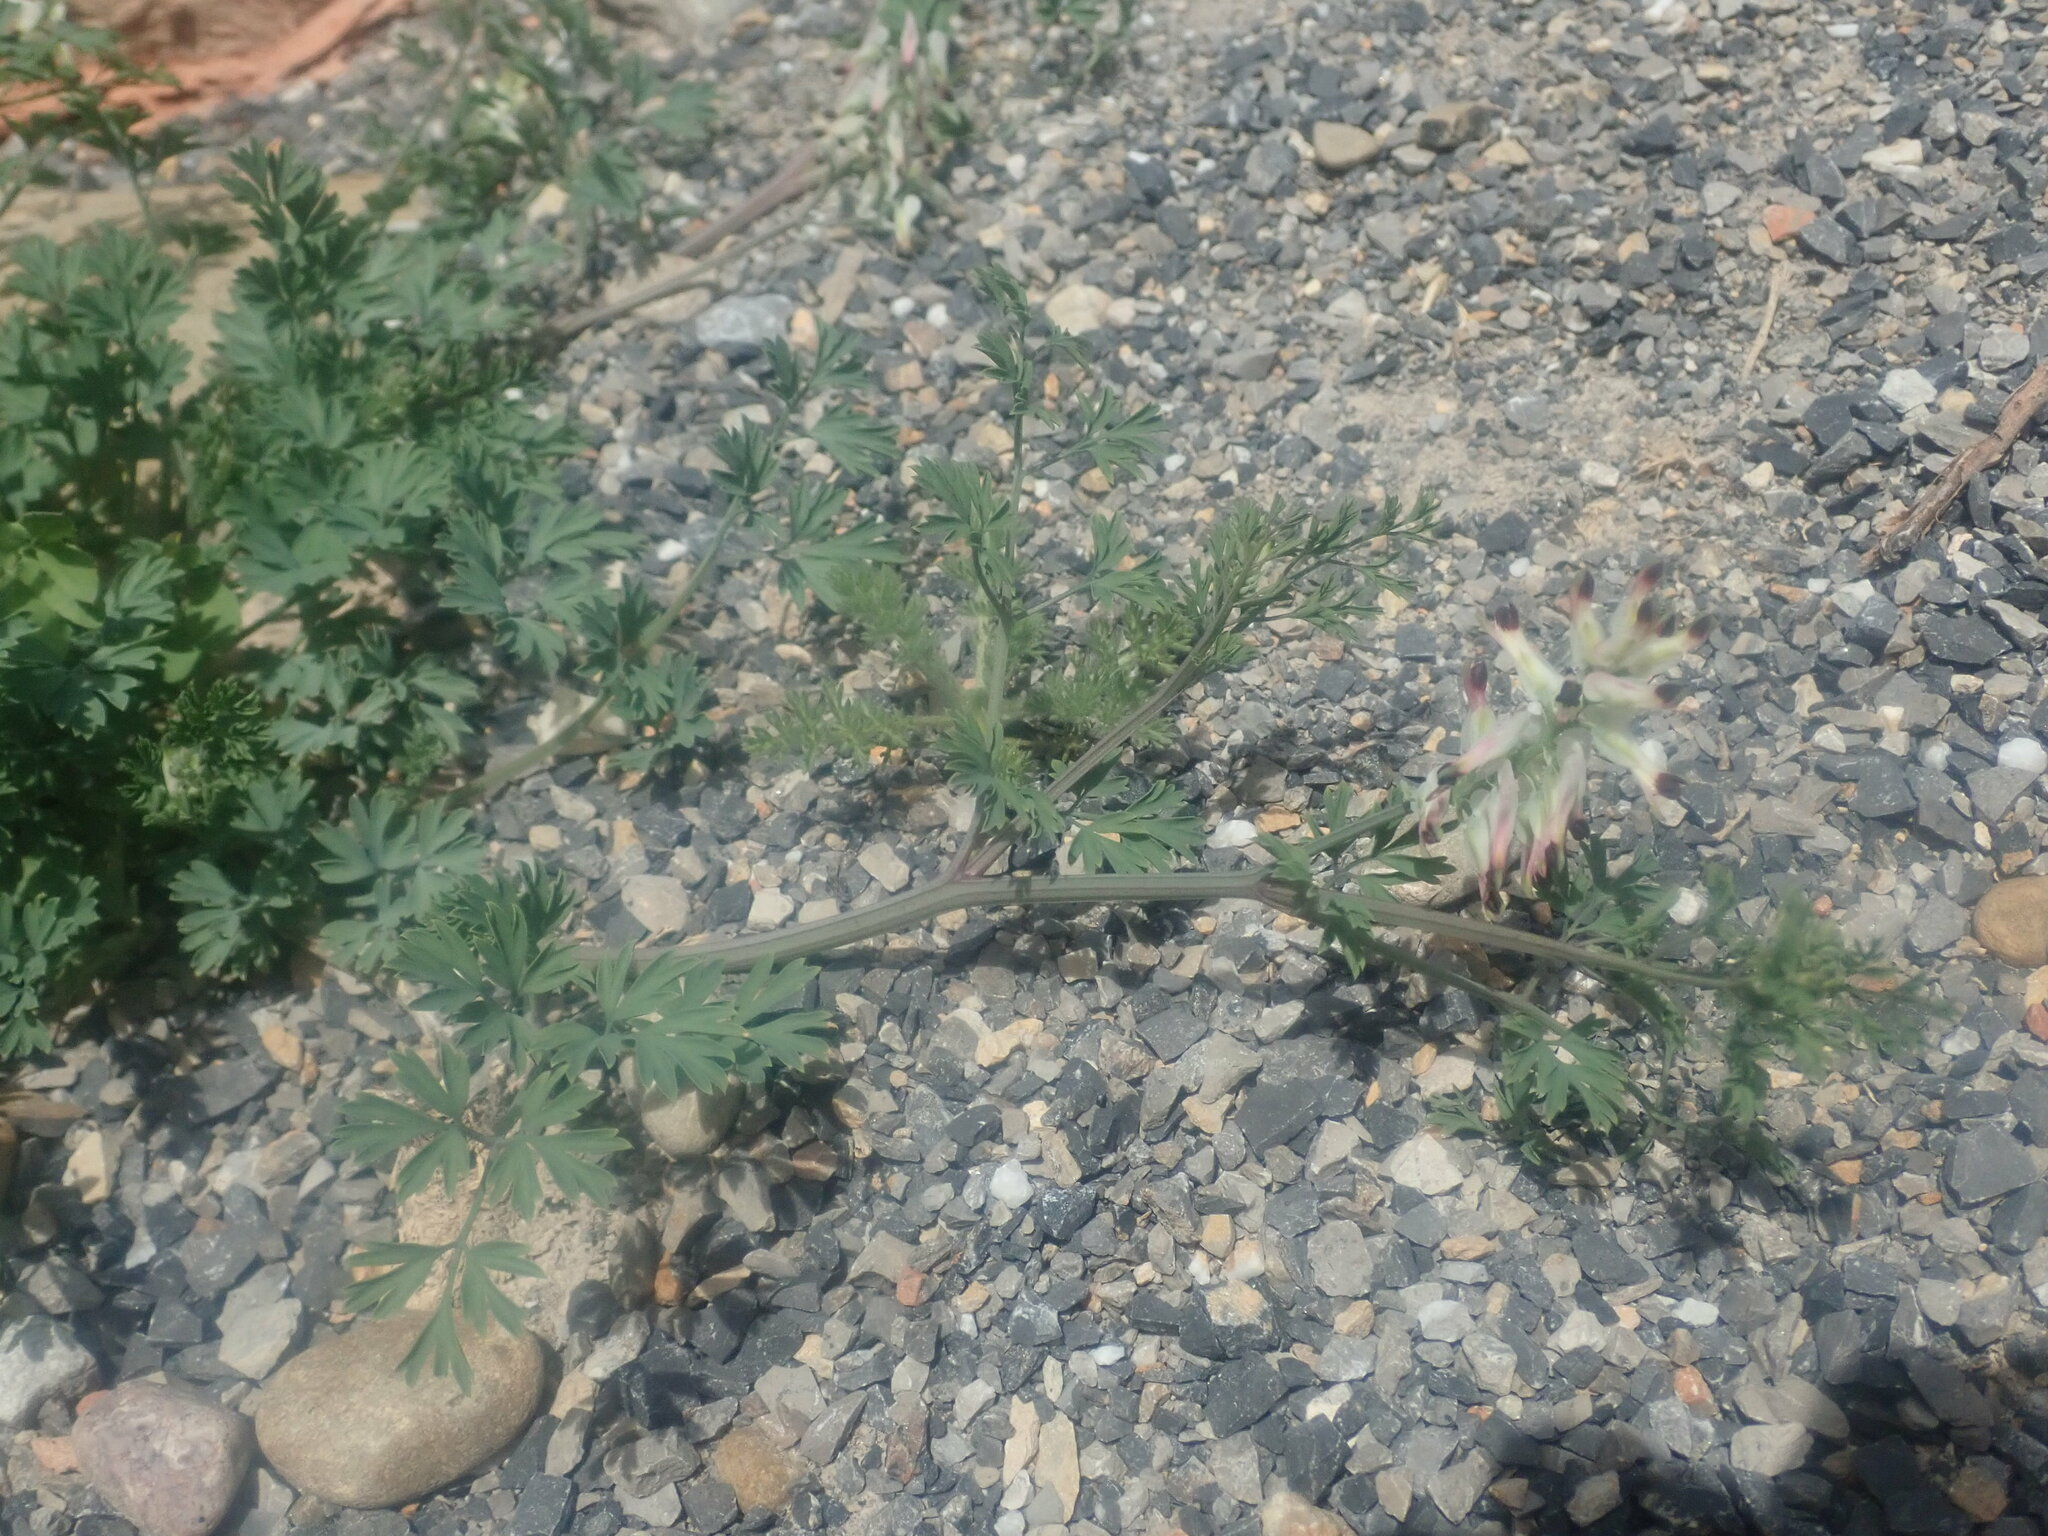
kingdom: Plantae
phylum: Tracheophyta
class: Magnoliopsida
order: Ranunculales
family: Papaveraceae
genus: Fumaria
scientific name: Fumaria capreolata
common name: White ramping-fumitory
